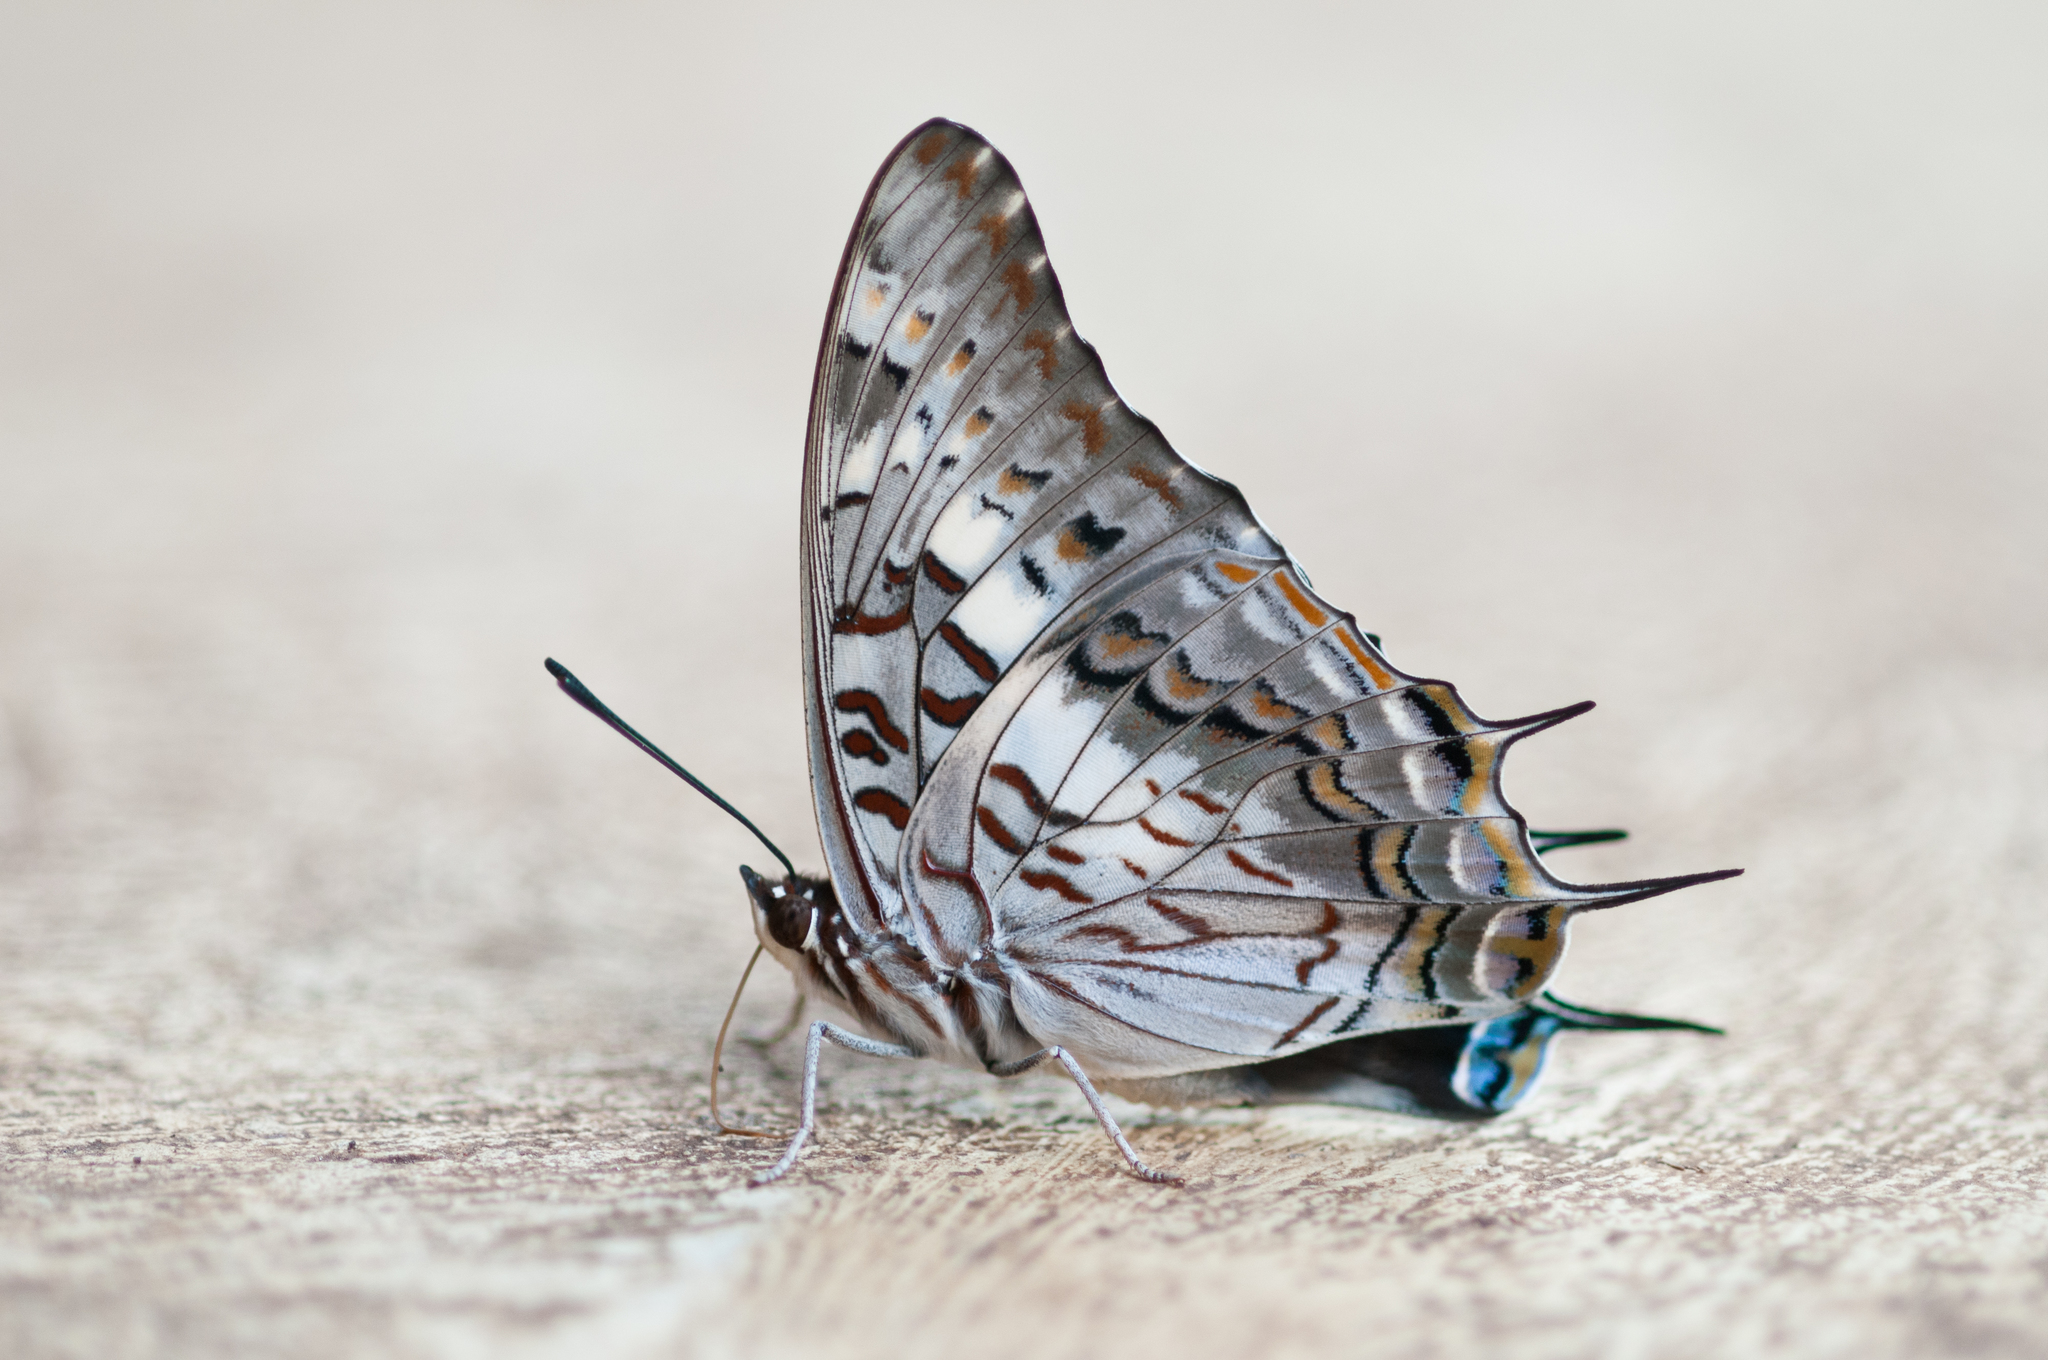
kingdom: Animalia
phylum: Arthropoda
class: Insecta
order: Lepidoptera
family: Nymphalidae
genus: Charaxes
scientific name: Charaxes achaemenes
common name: Bushveld charaxes
